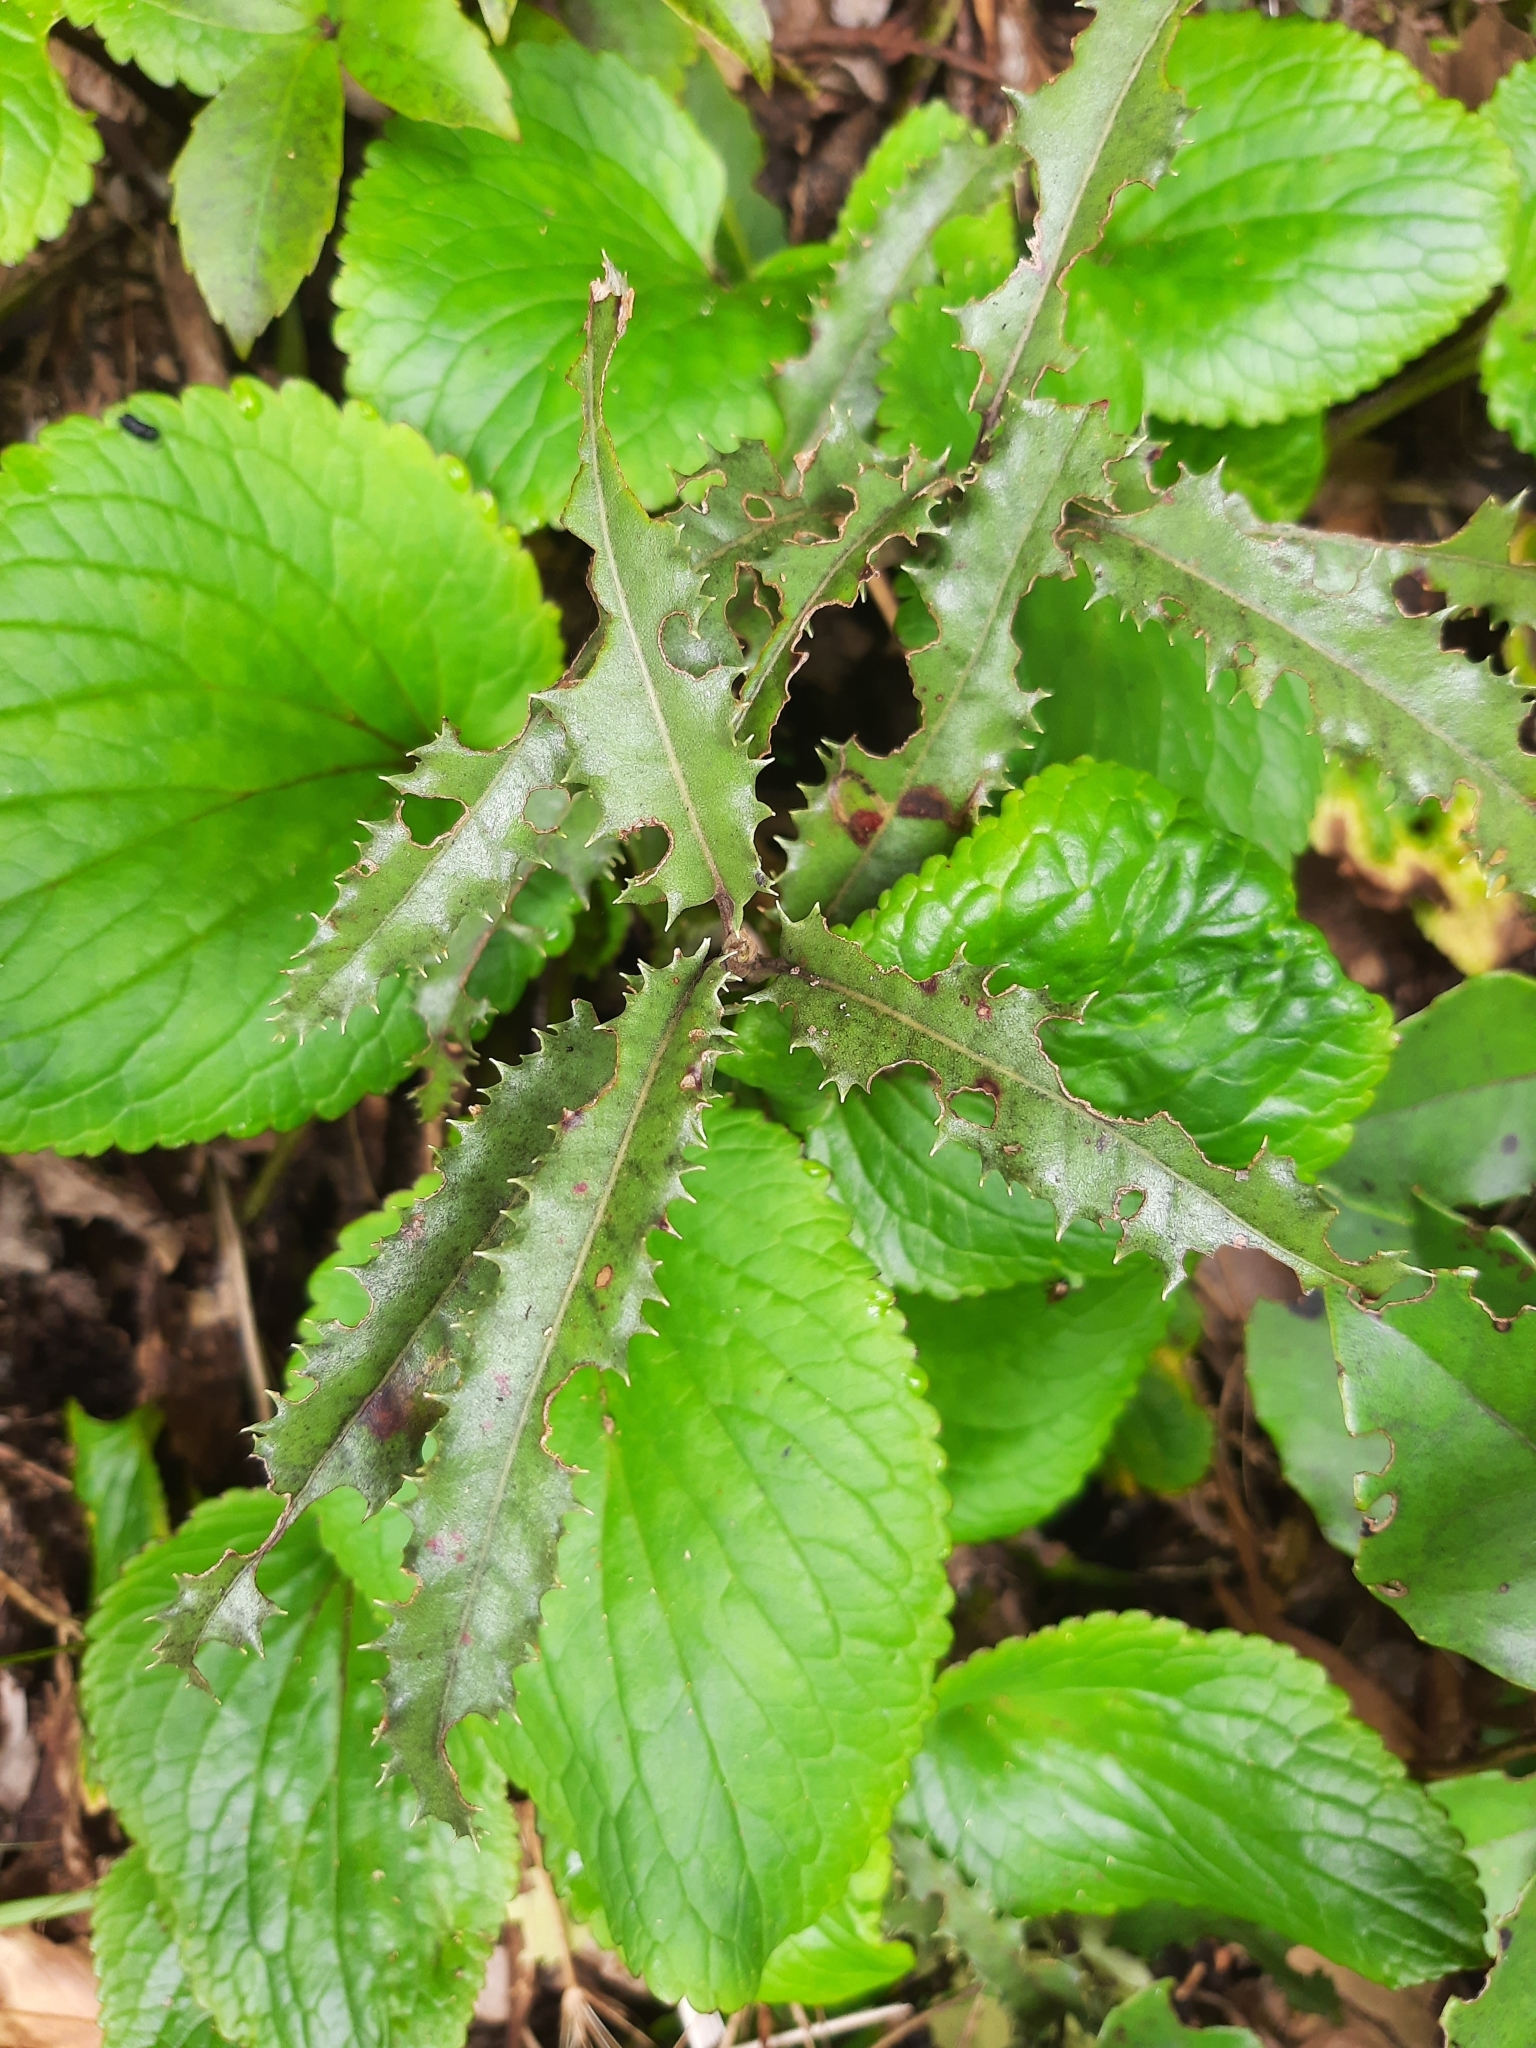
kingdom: Plantae
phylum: Tracheophyta
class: Magnoliopsida
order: Asterales
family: Asteraceae
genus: Olearia
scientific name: Olearia ilicifolia
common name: Maori-holly
